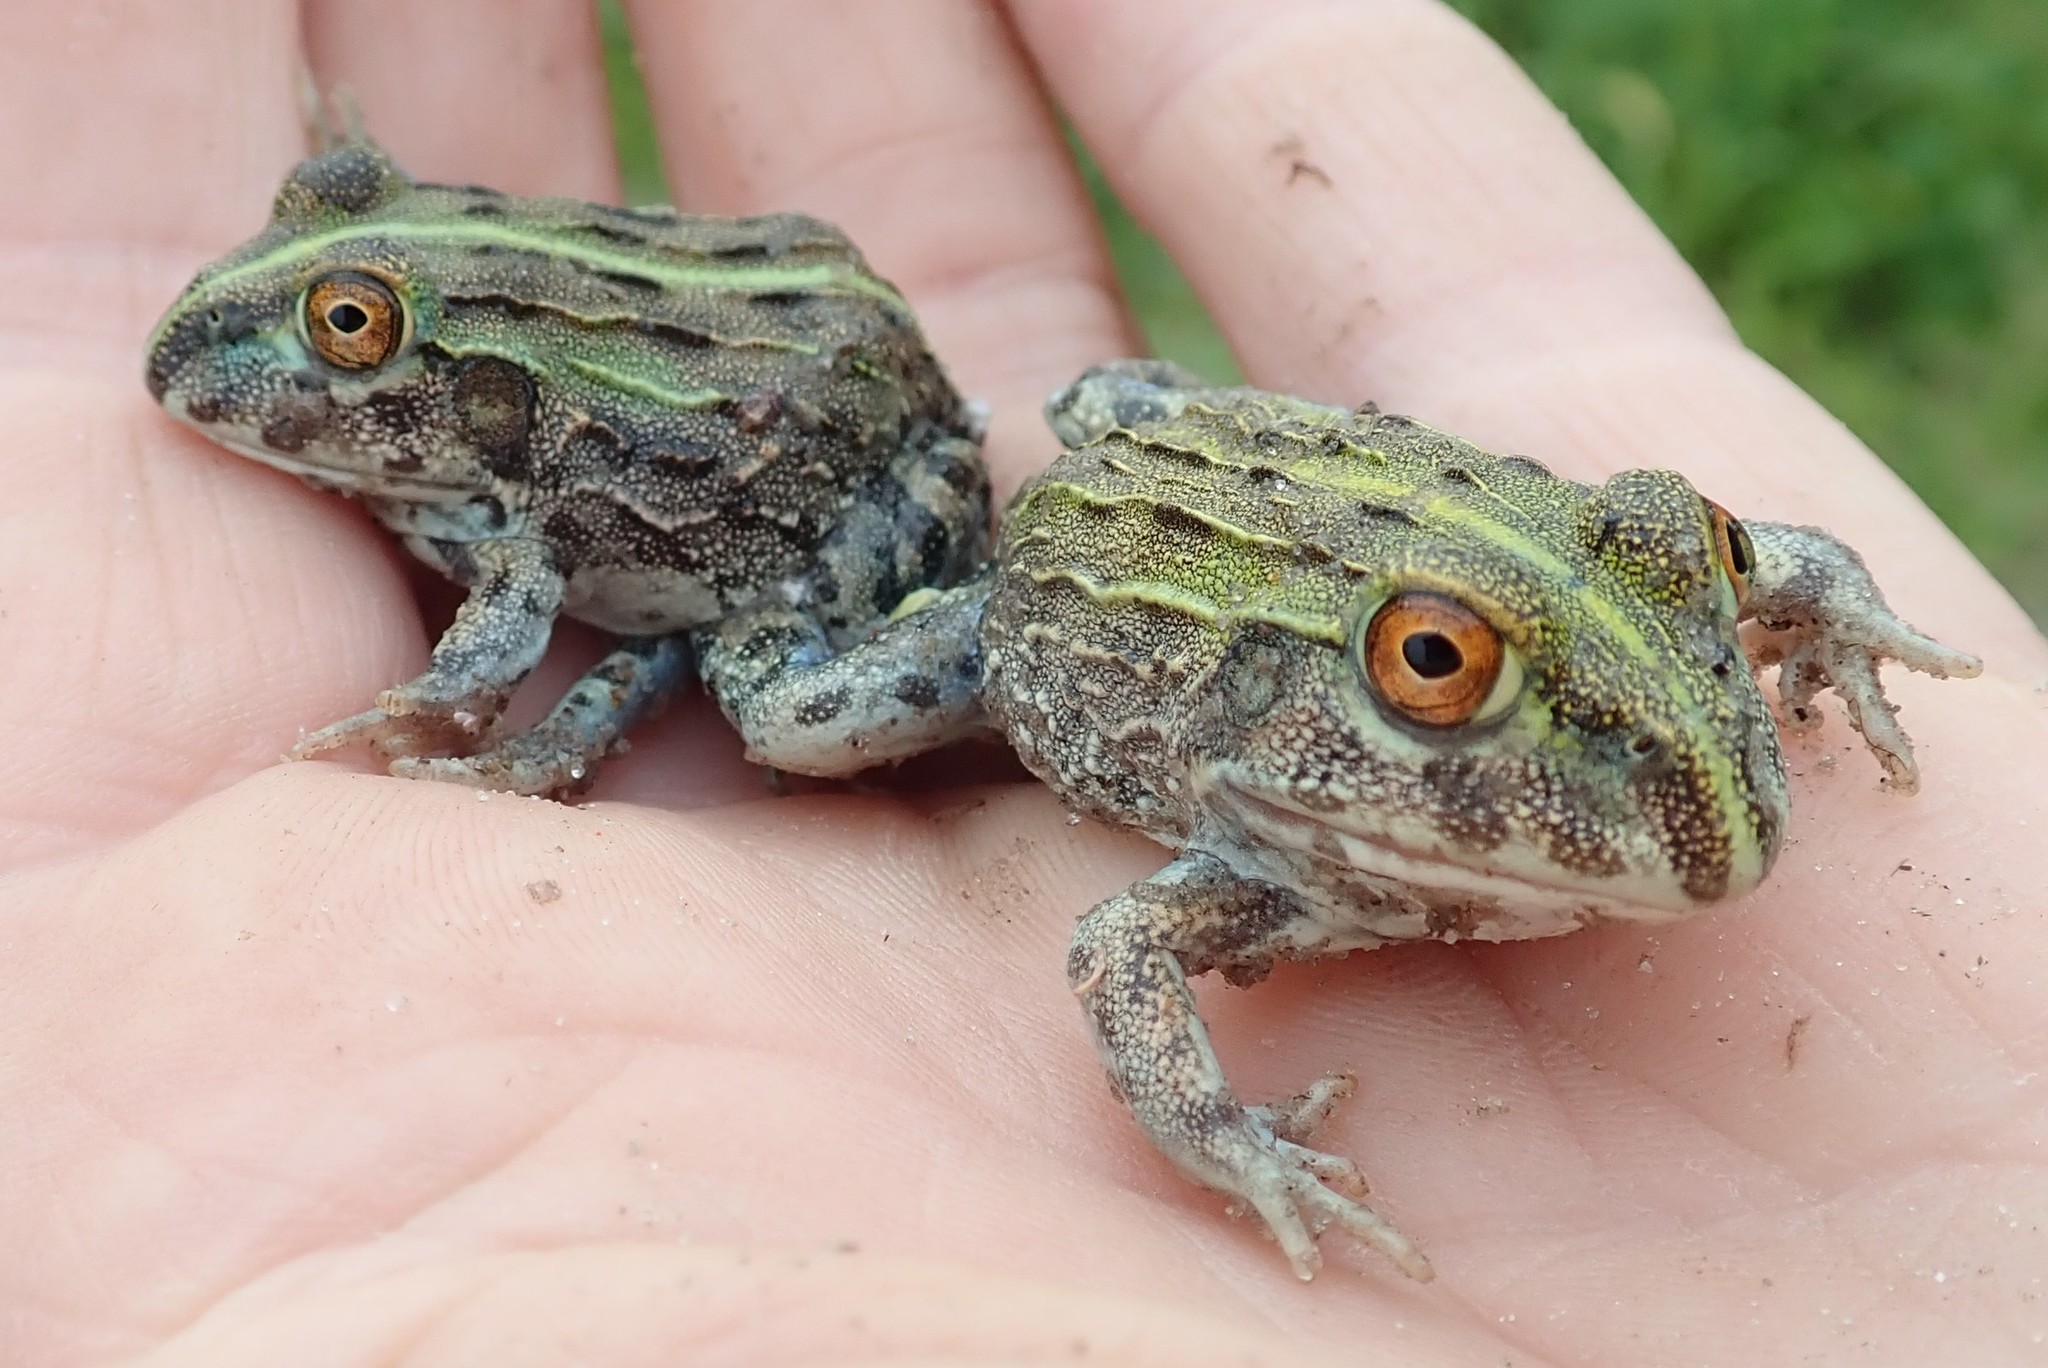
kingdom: Animalia
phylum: Chordata
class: Amphibia
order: Anura
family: Pyxicephalidae
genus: Pyxicephalus
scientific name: Pyxicephalus adspersus
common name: African bullfrog
